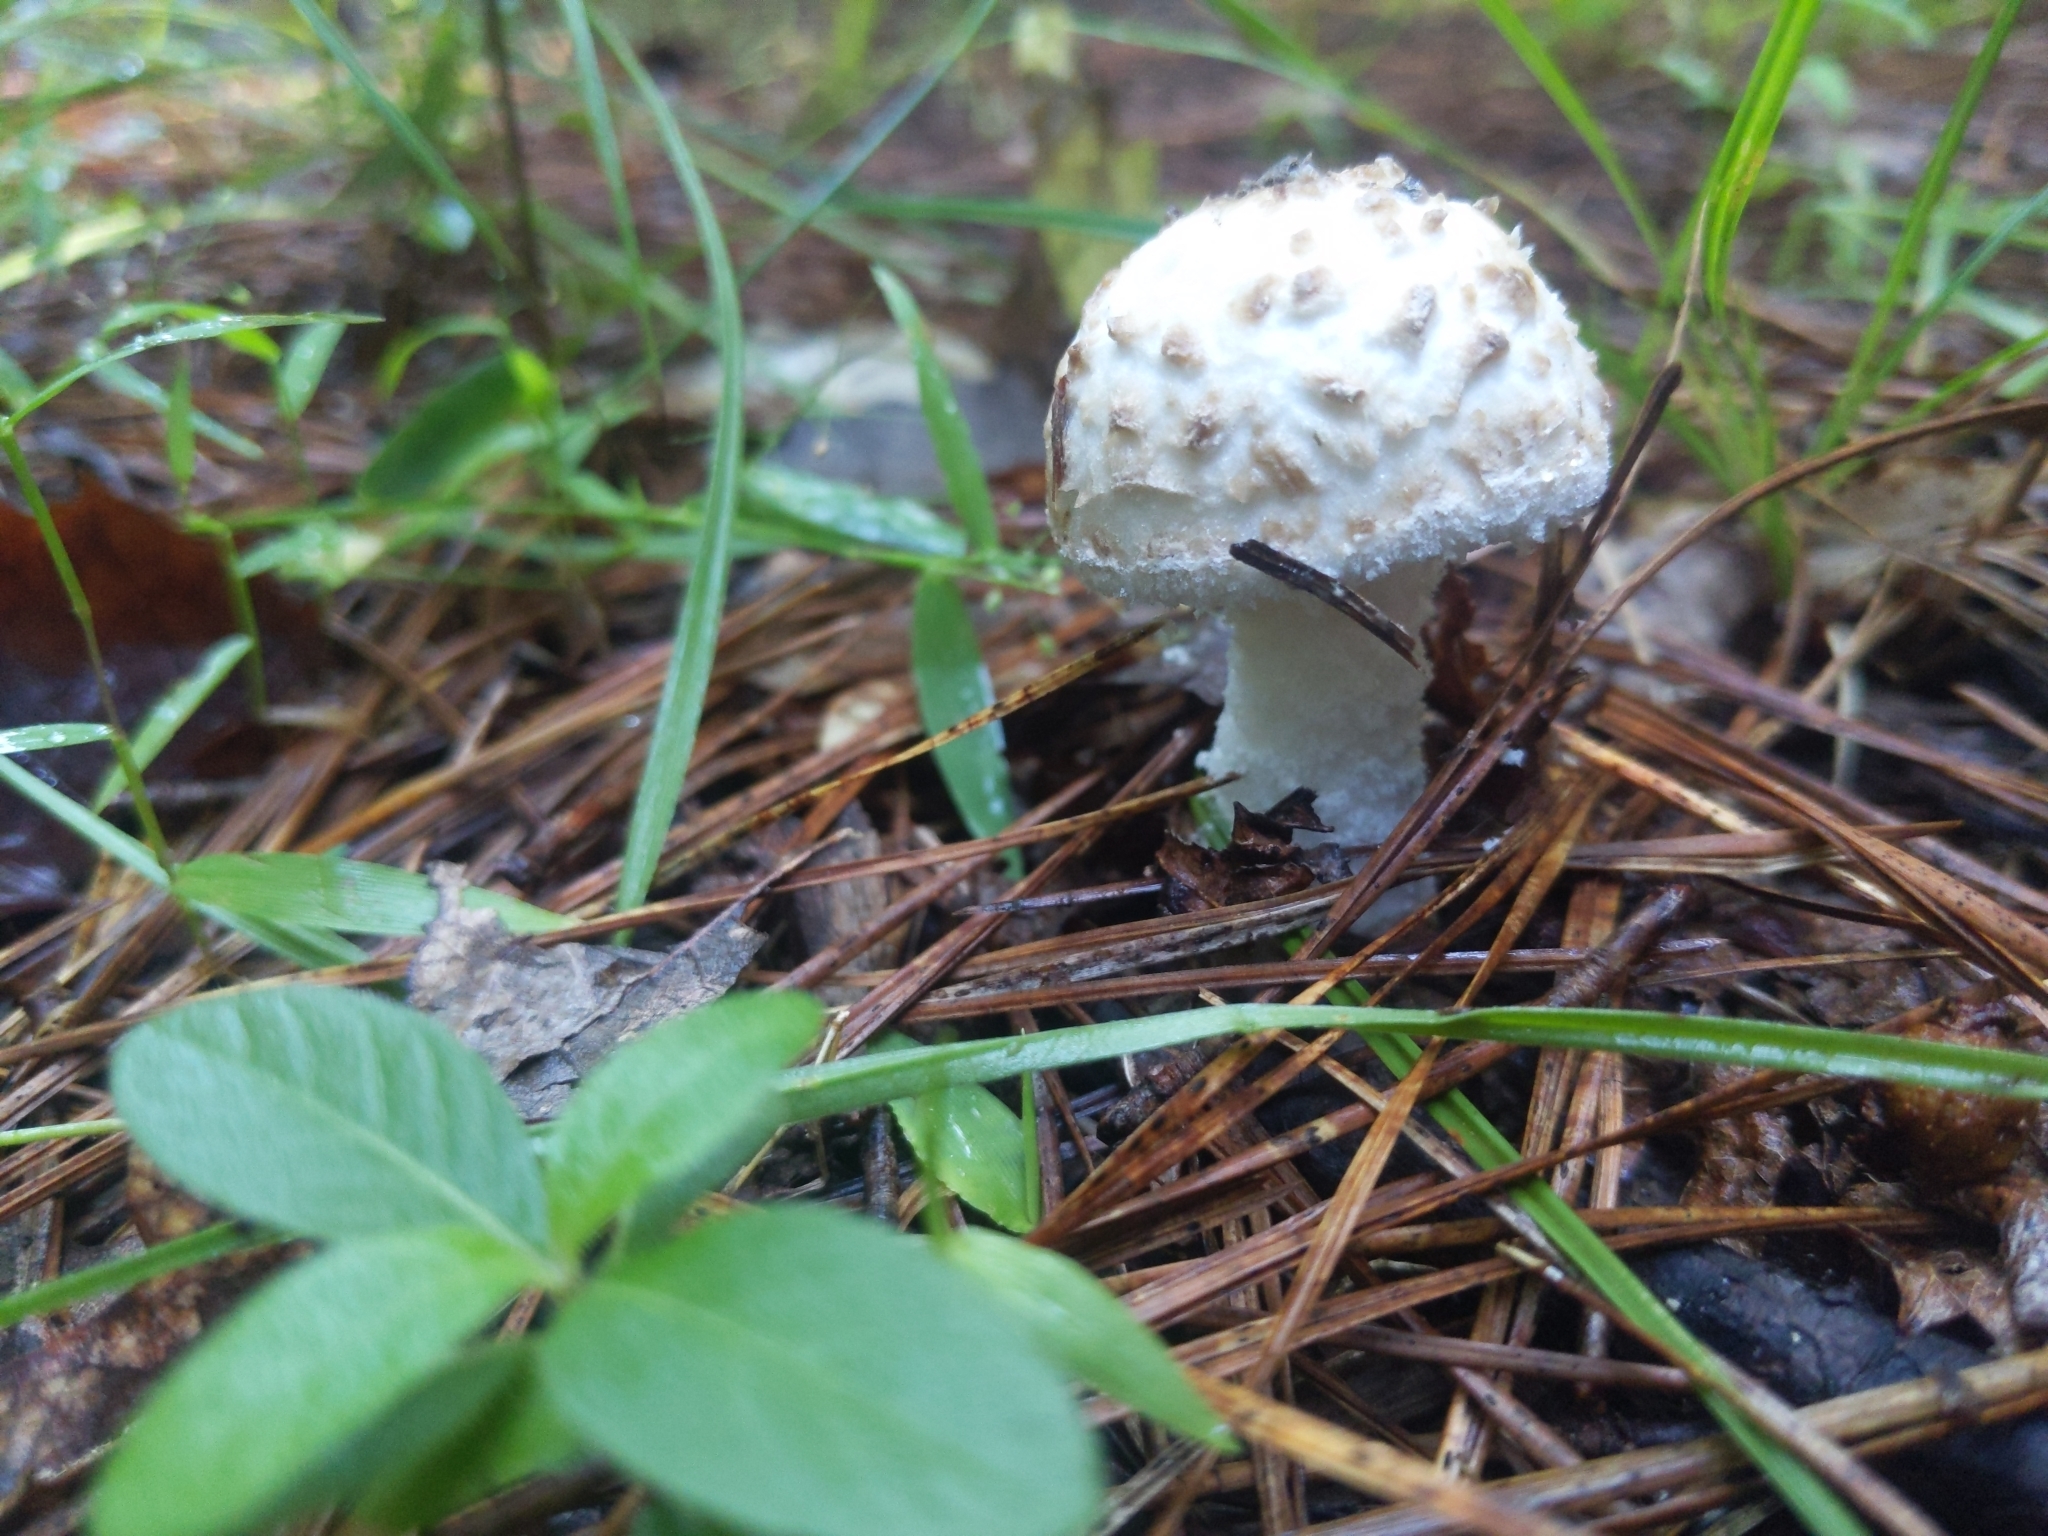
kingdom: Fungi
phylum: Basidiomycota
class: Agaricomycetes
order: Agaricales
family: Amanitaceae
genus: Aspidella
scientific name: Aspidella hesleri
